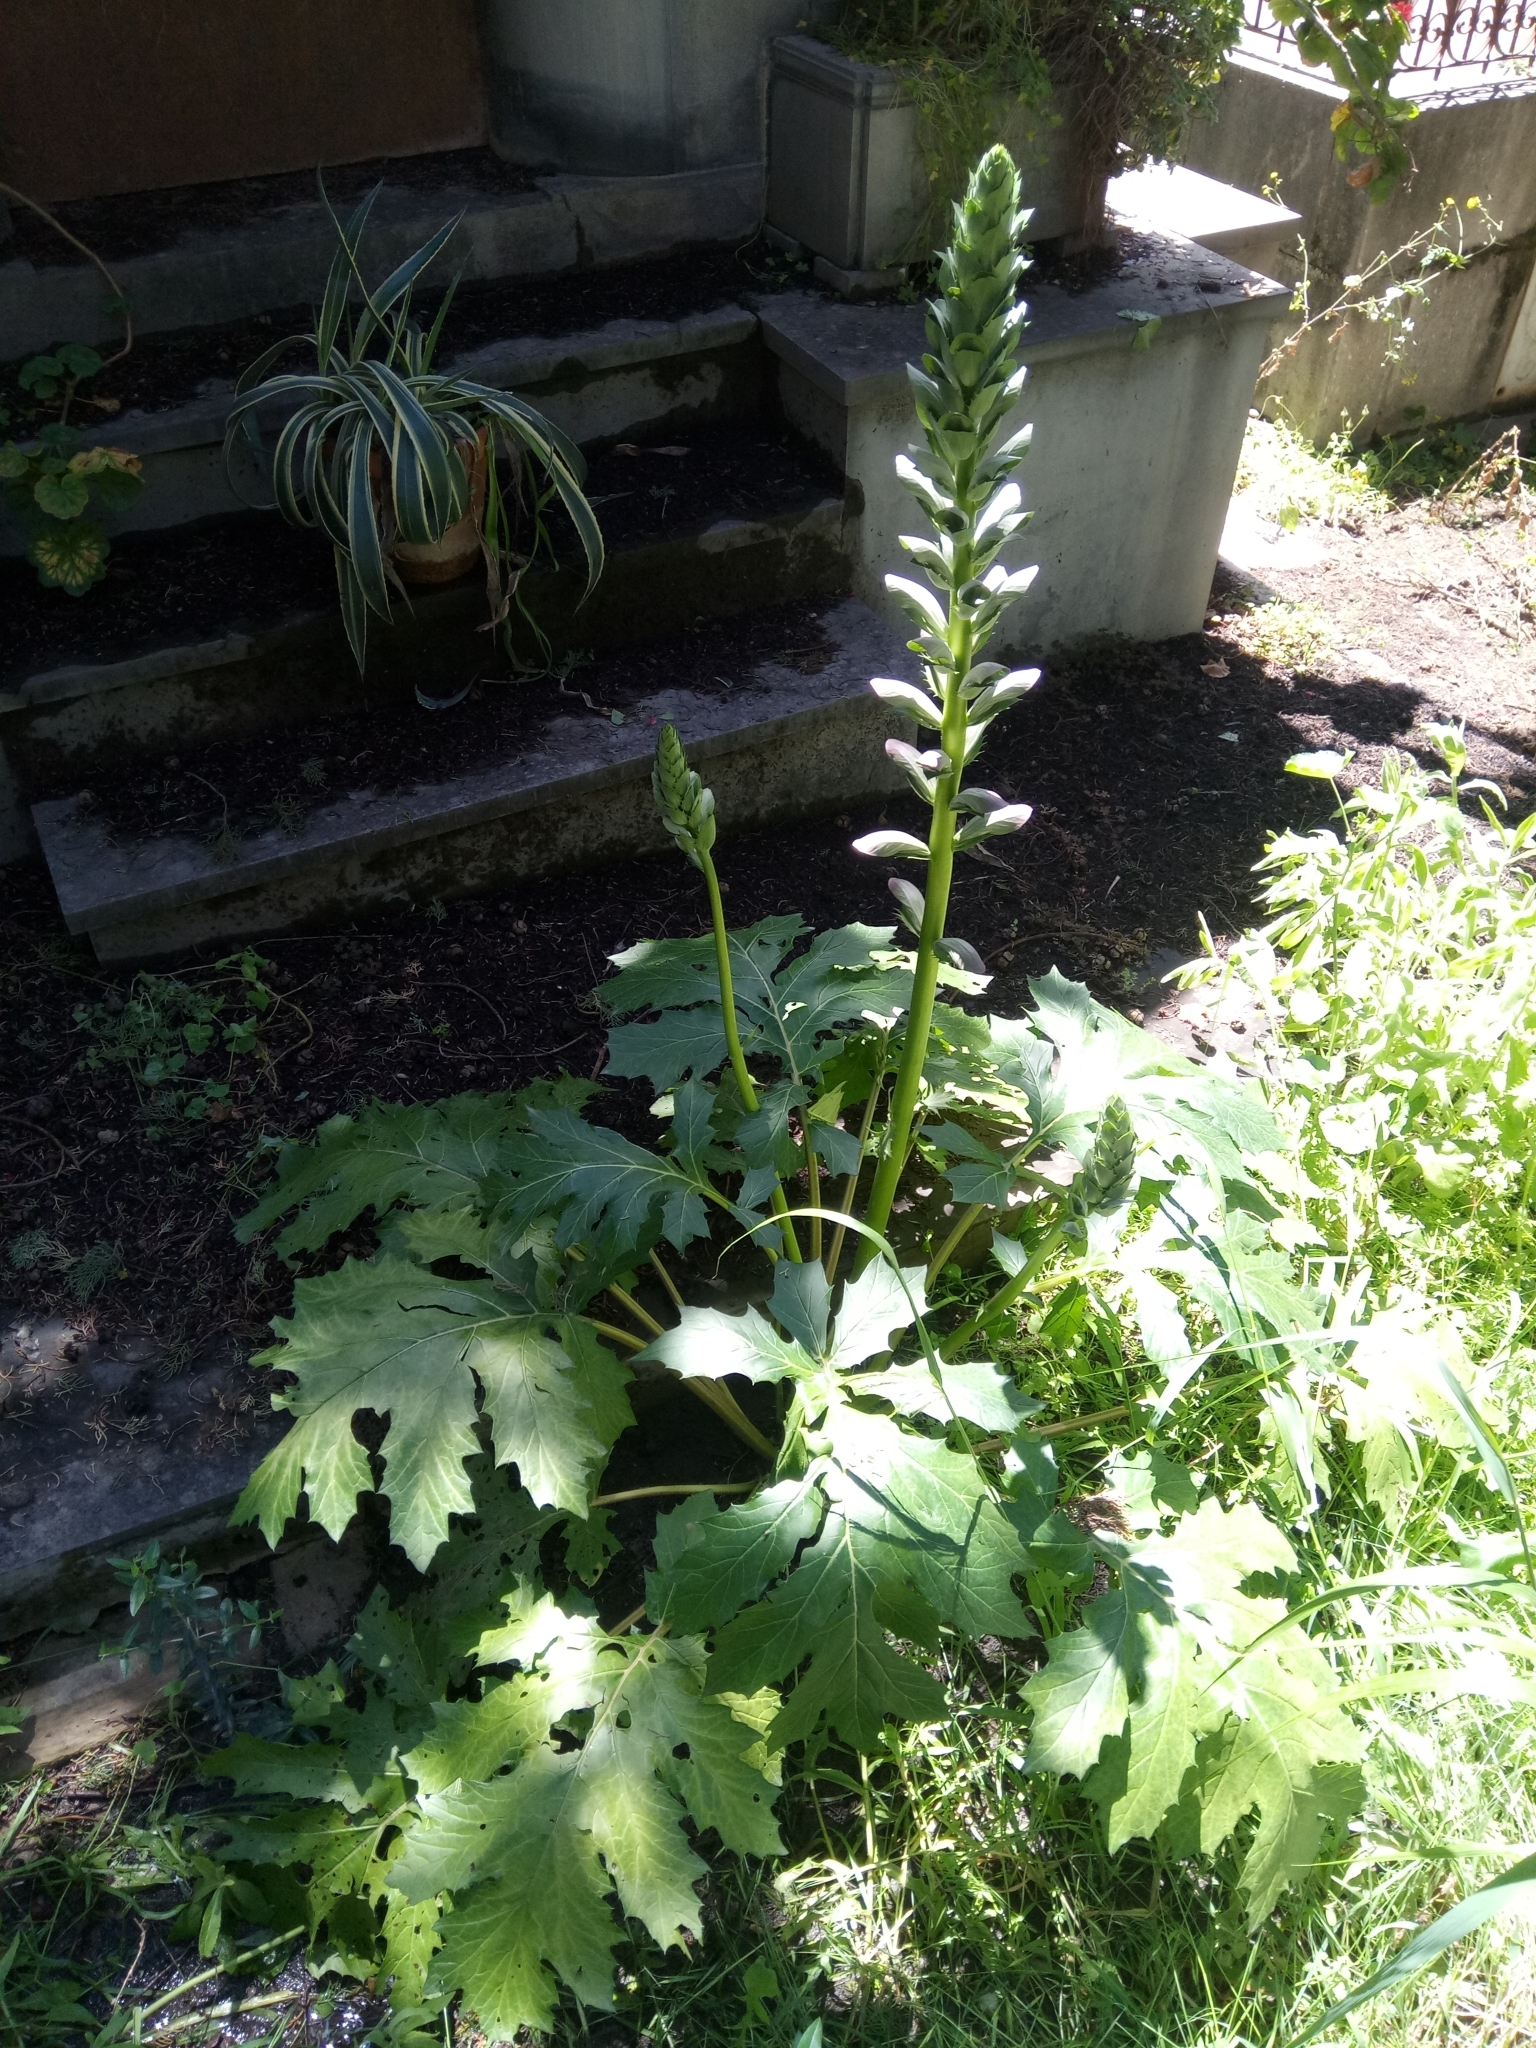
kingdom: Plantae
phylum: Tracheophyta
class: Magnoliopsida
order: Lamiales
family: Acanthaceae
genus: Acanthus
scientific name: Acanthus mollis
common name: Bear's-breech
